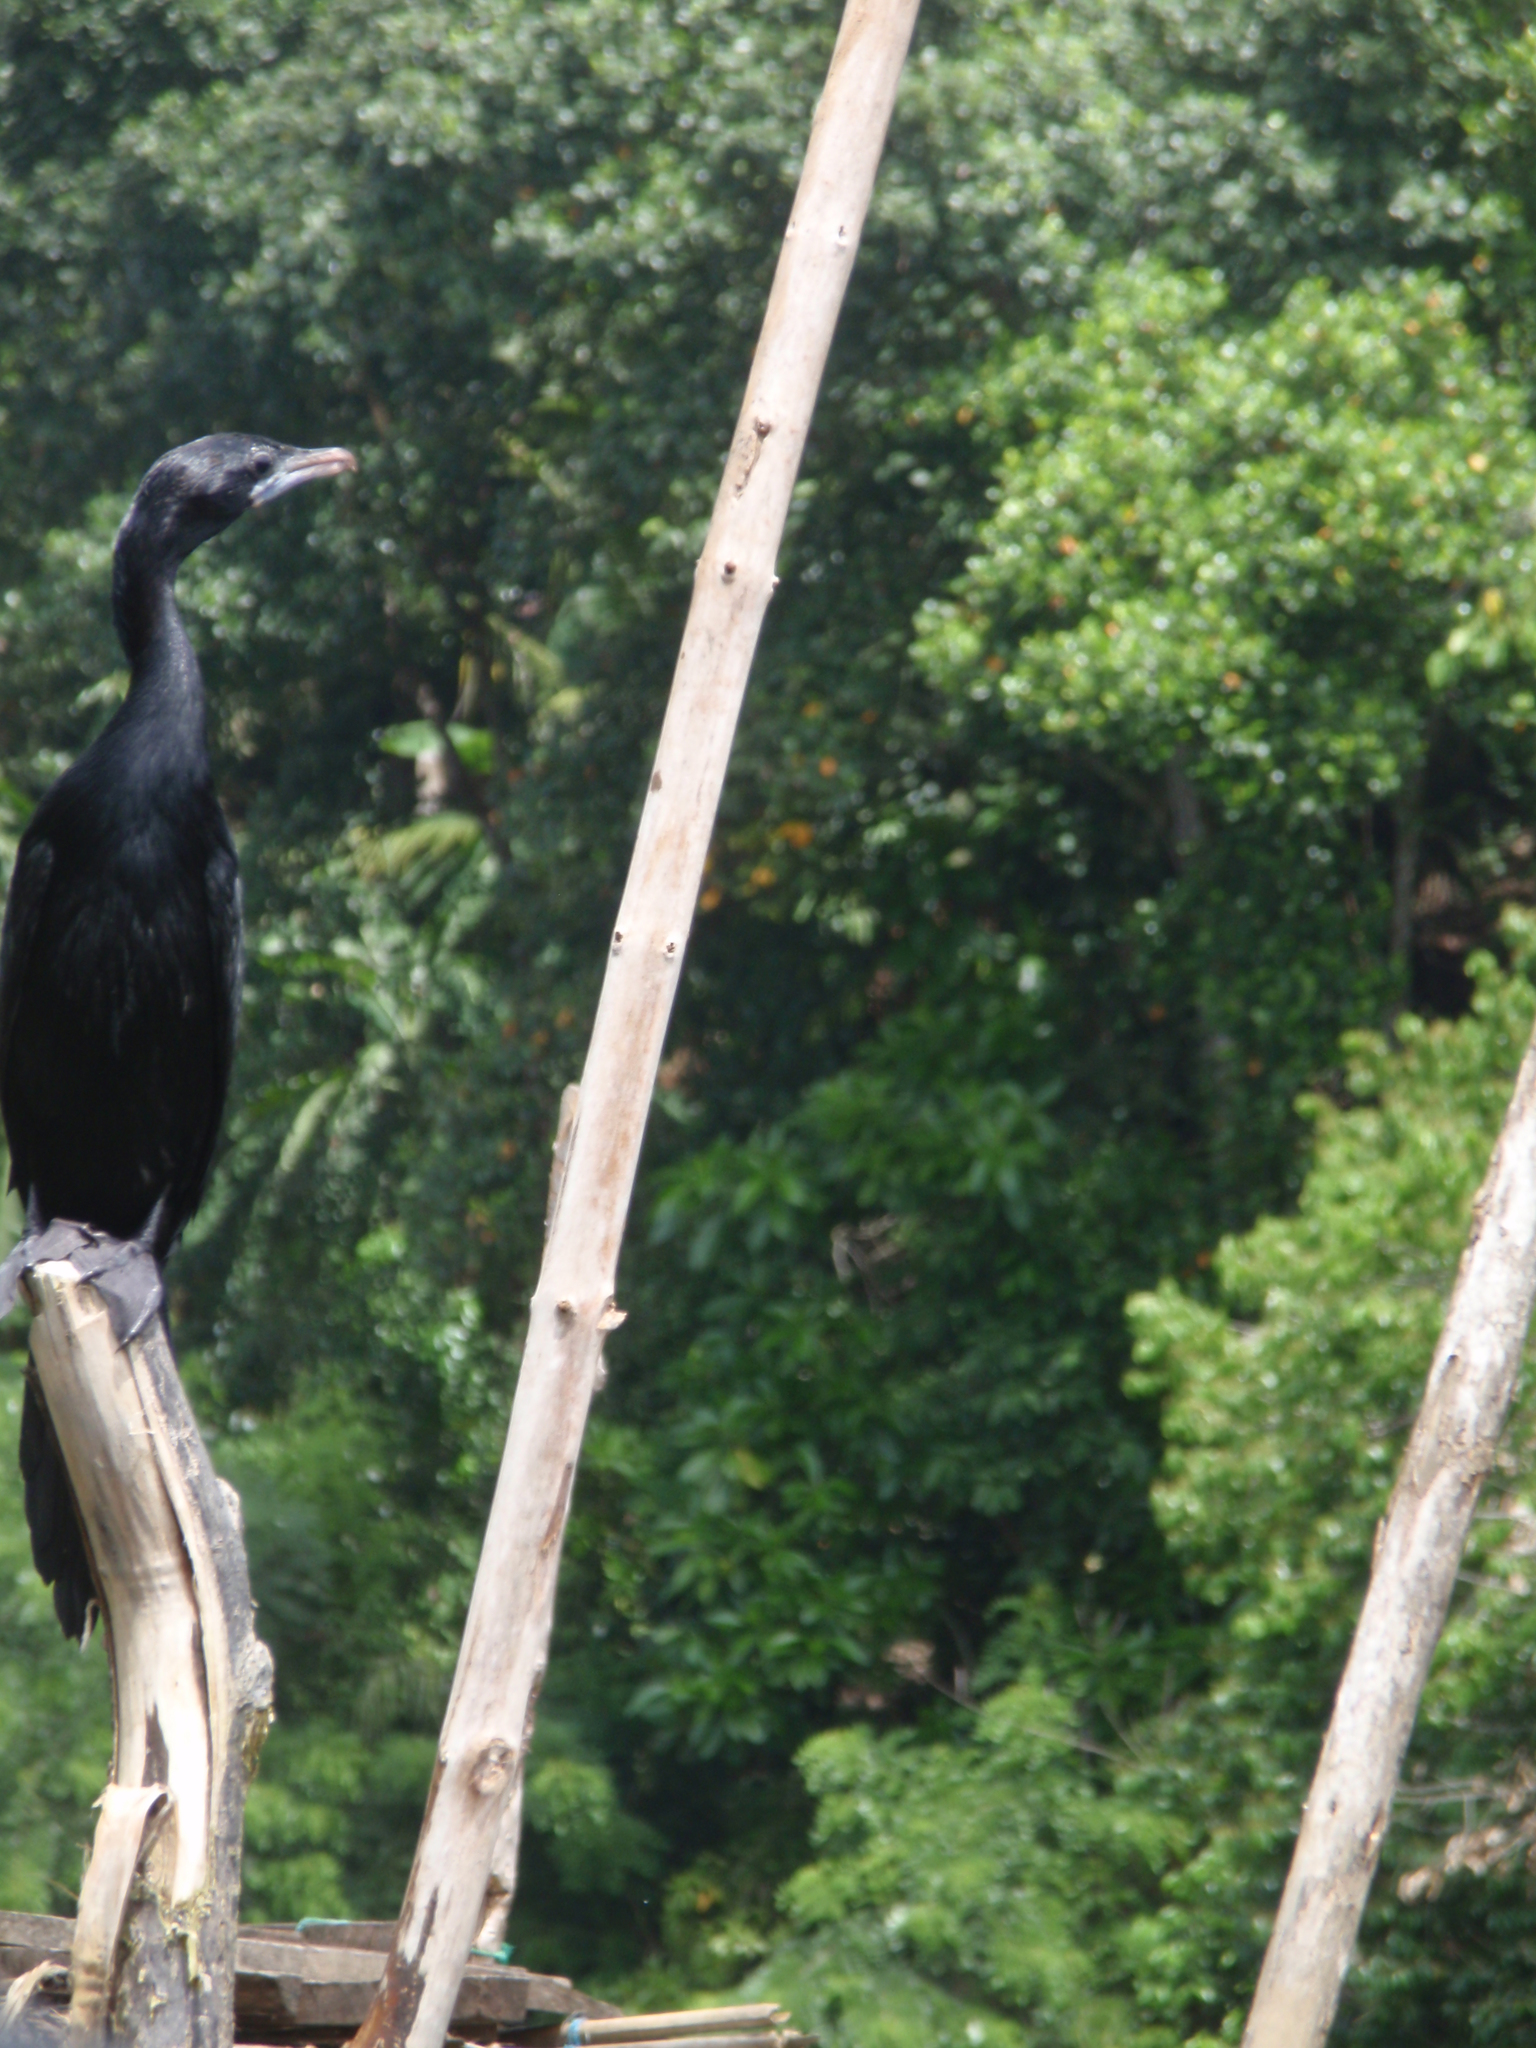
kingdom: Animalia
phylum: Chordata
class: Aves
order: Suliformes
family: Phalacrocoracidae
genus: Microcarbo
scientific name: Microcarbo niger
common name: Little cormorant
